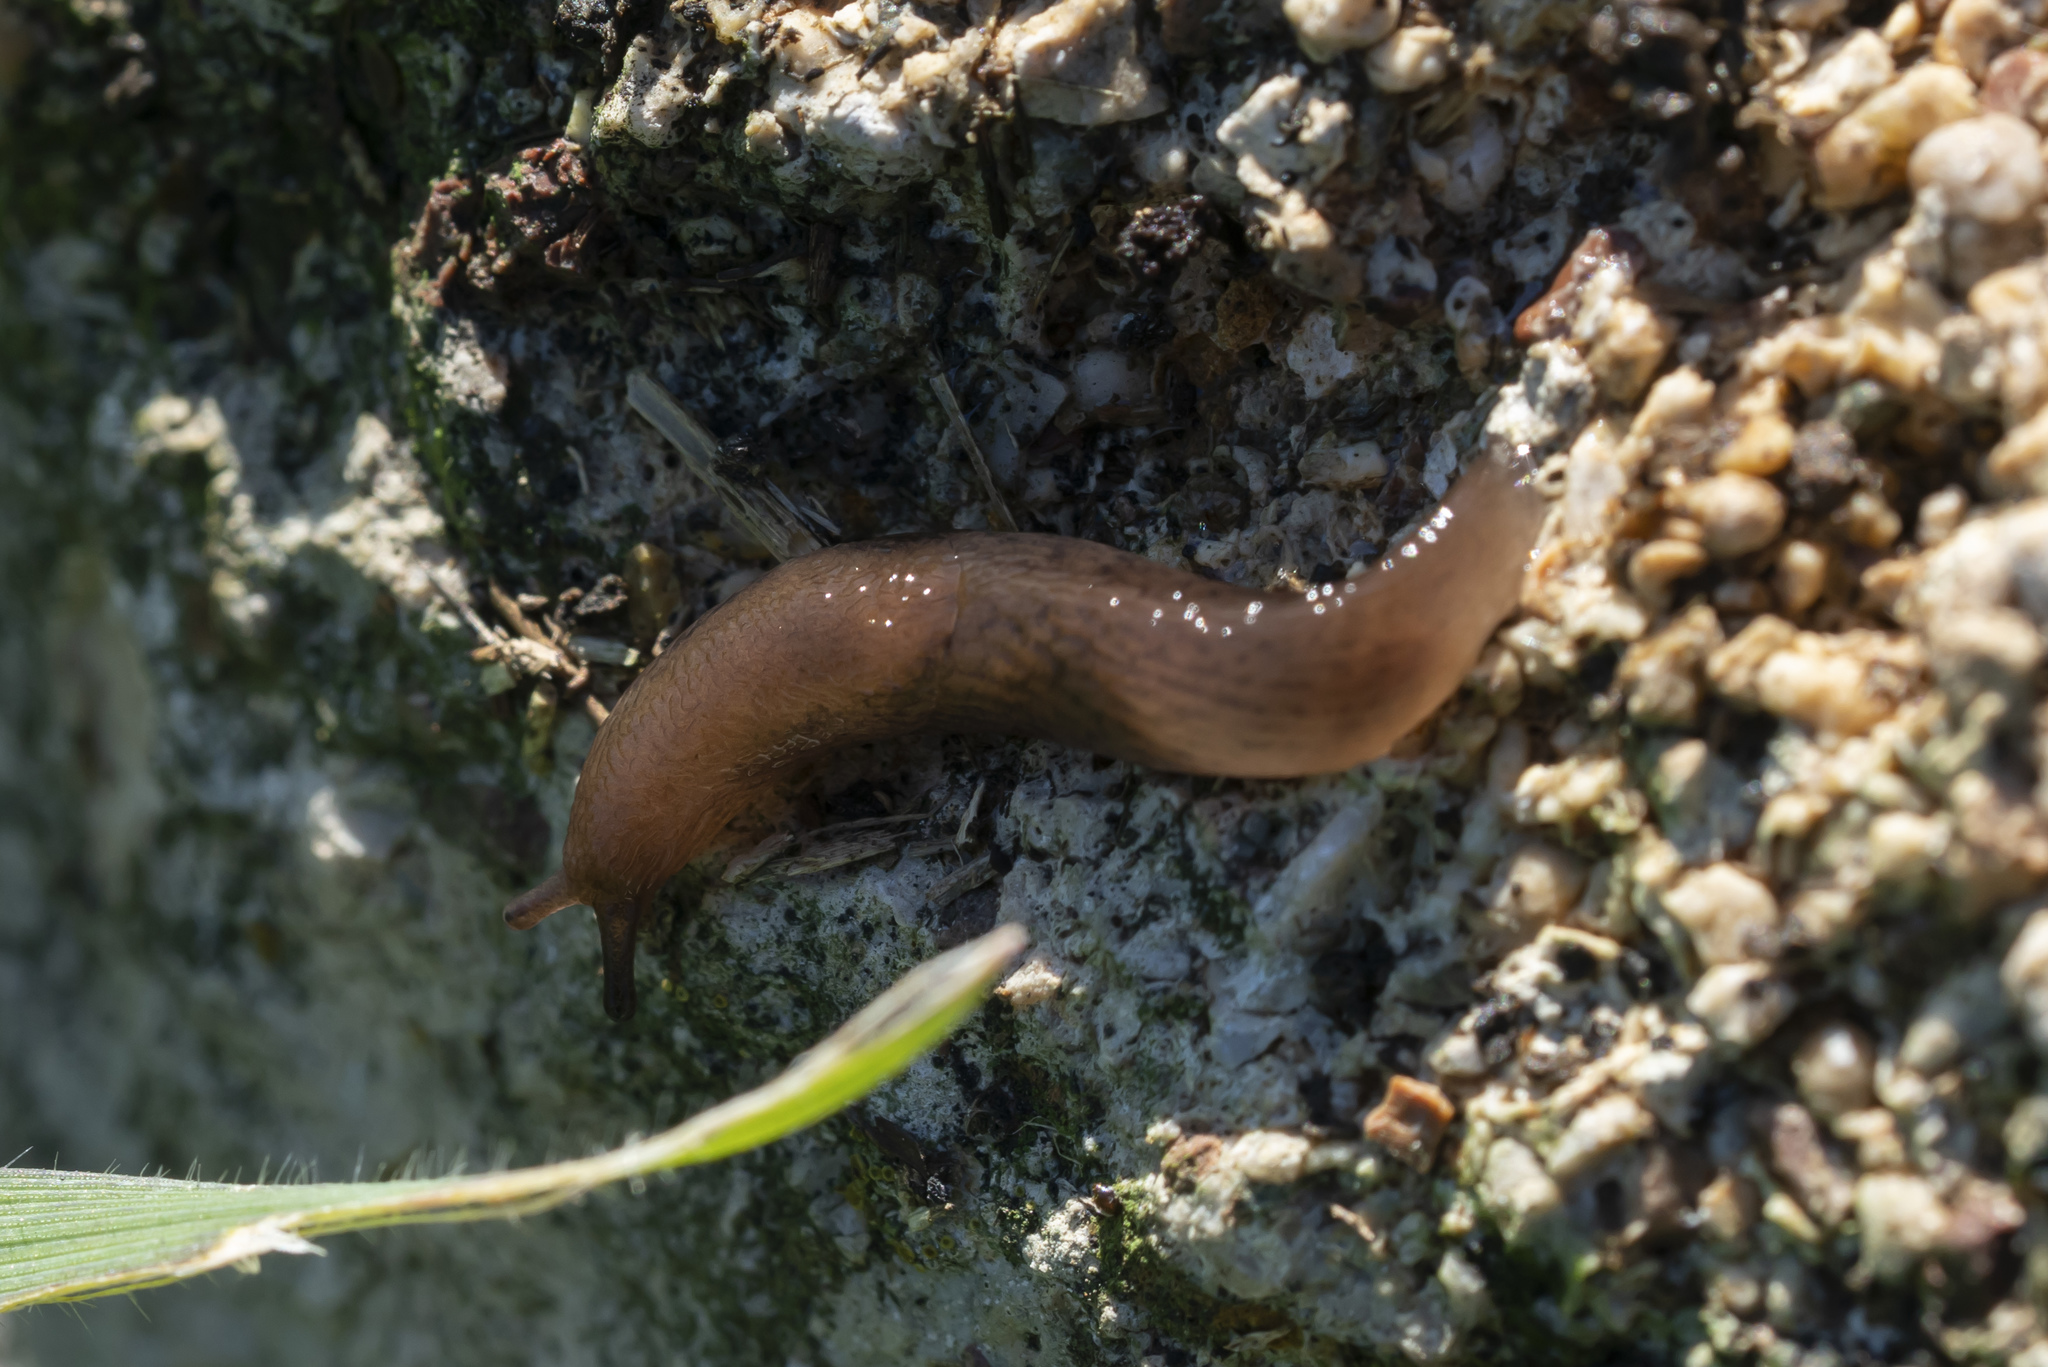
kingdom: Animalia
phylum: Mollusca
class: Gastropoda
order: Stylommatophora
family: Agriolimacidae
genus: Mesolimax
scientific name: Mesolimax brauni
